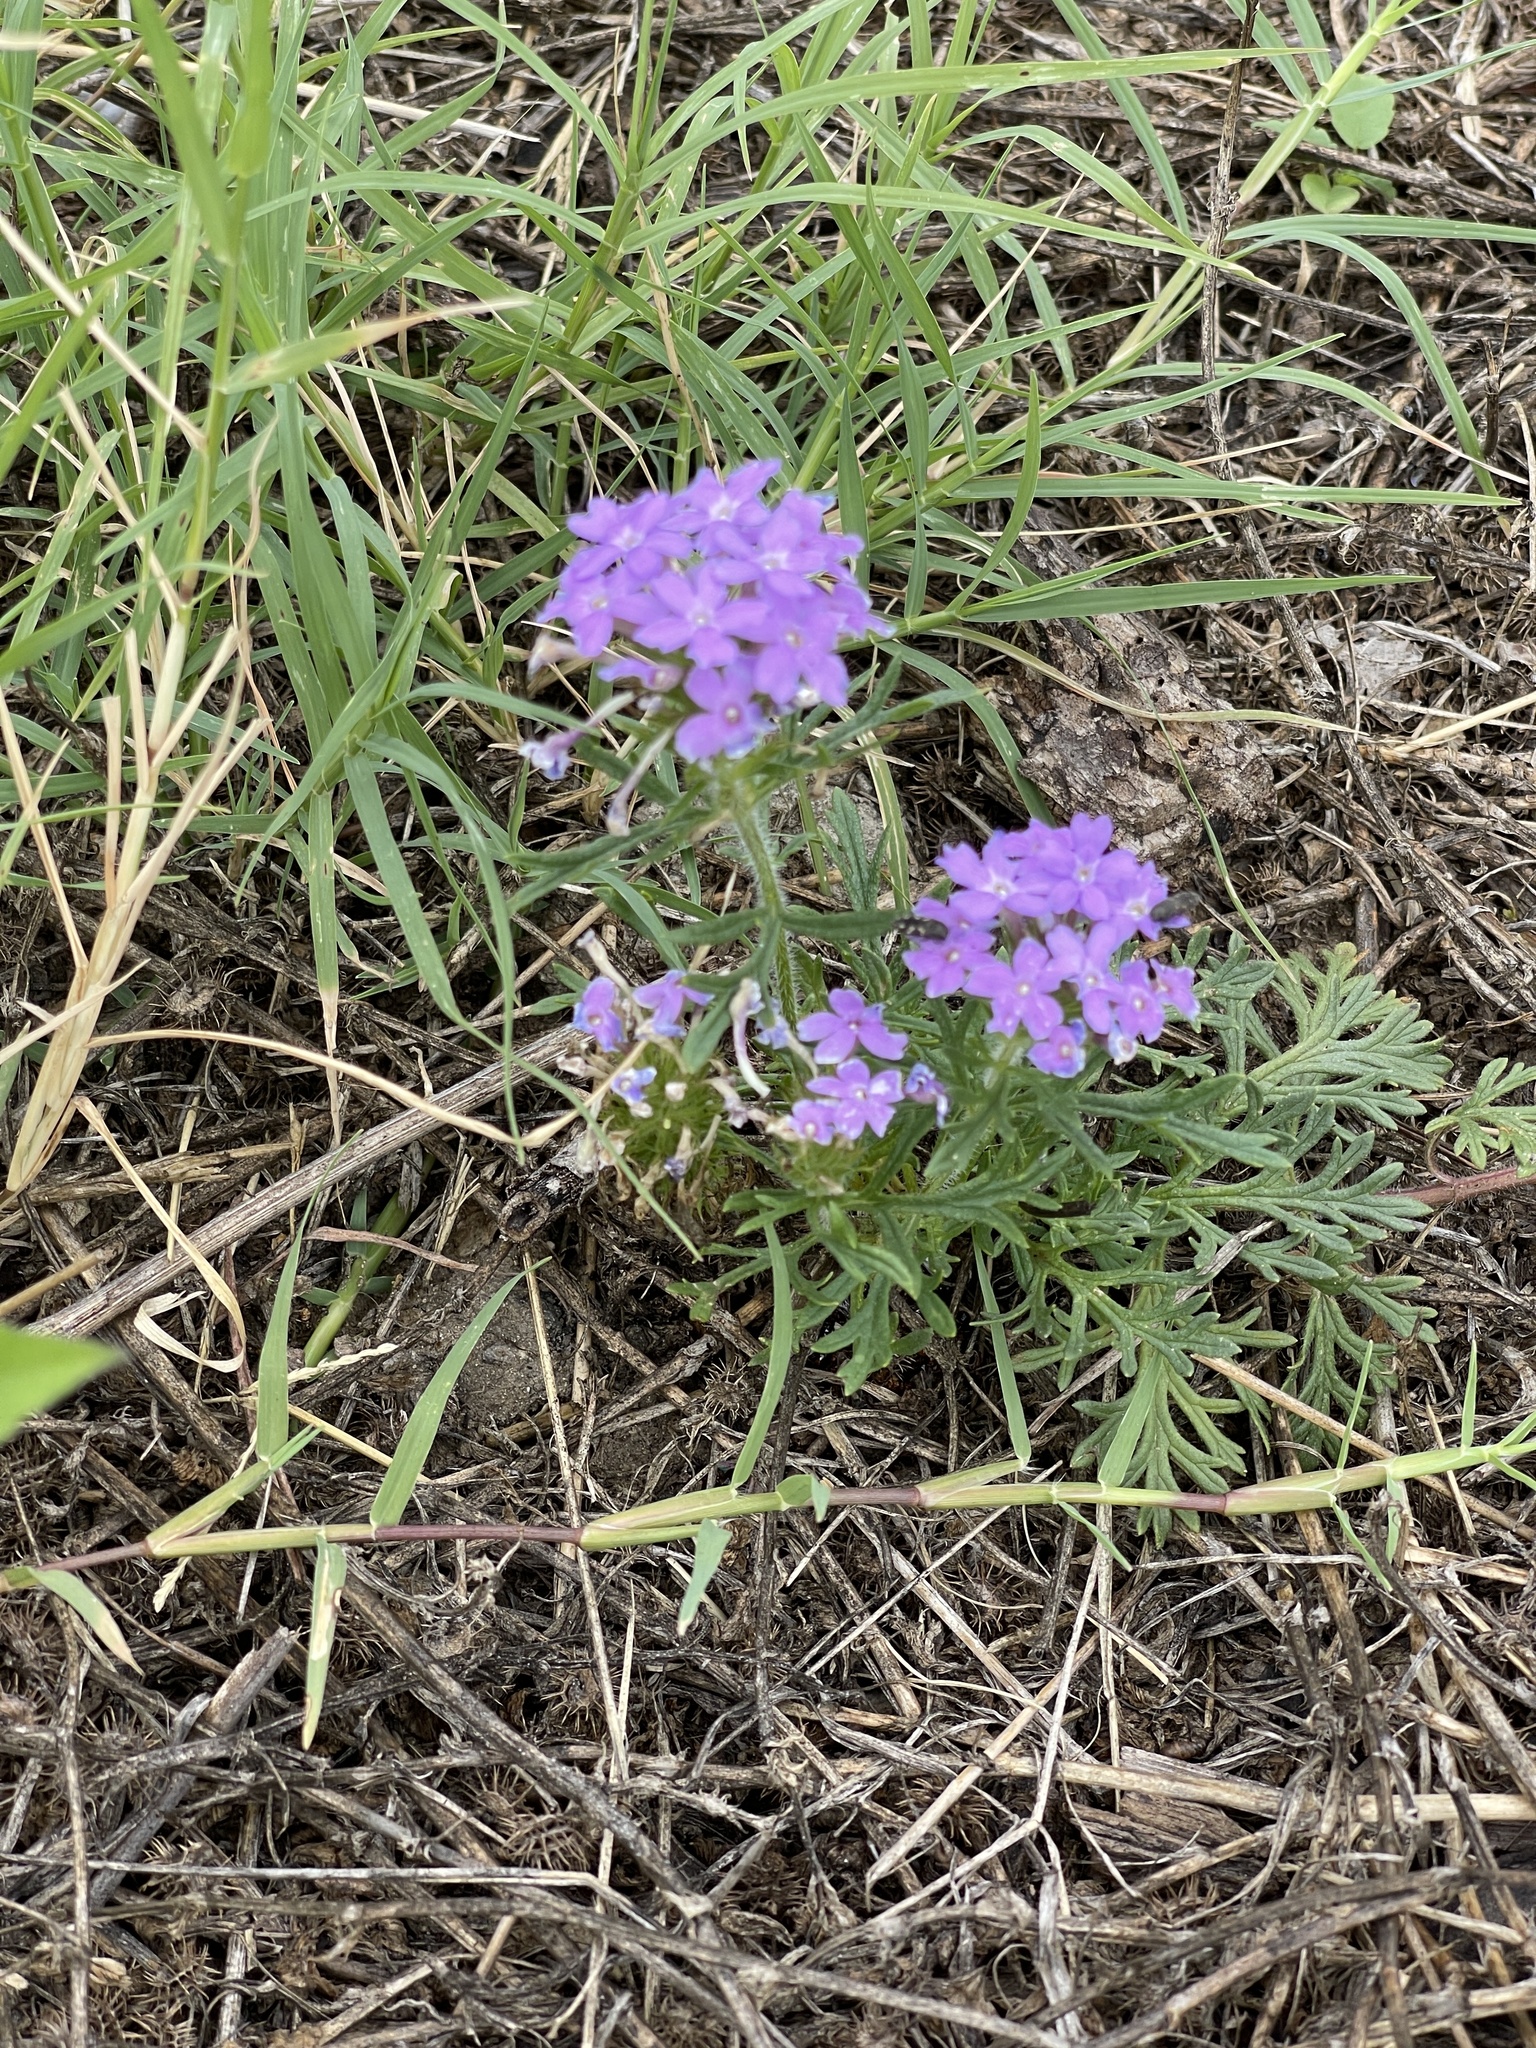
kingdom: Plantae
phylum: Tracheophyta
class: Magnoliopsida
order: Lamiales
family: Verbenaceae
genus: Verbena
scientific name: Verbena bipinnatifida
